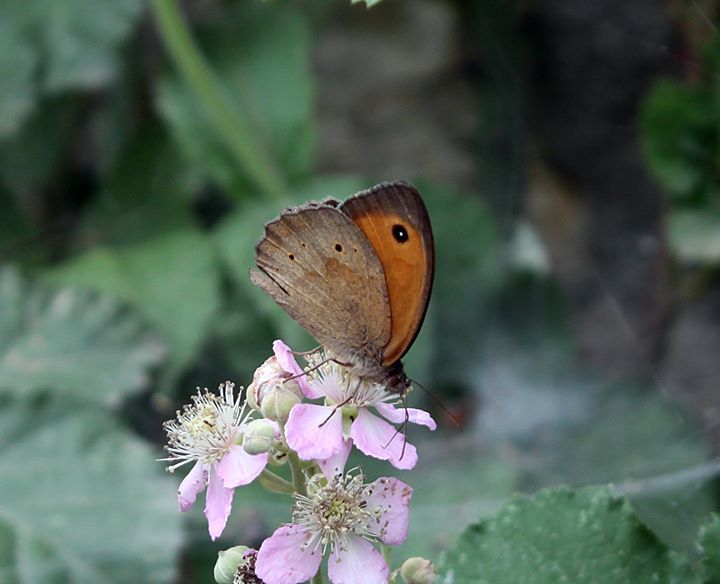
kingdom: Animalia
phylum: Arthropoda
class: Insecta
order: Lepidoptera
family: Nymphalidae
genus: Maniola
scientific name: Maniola jurtina
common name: Meadow brown
